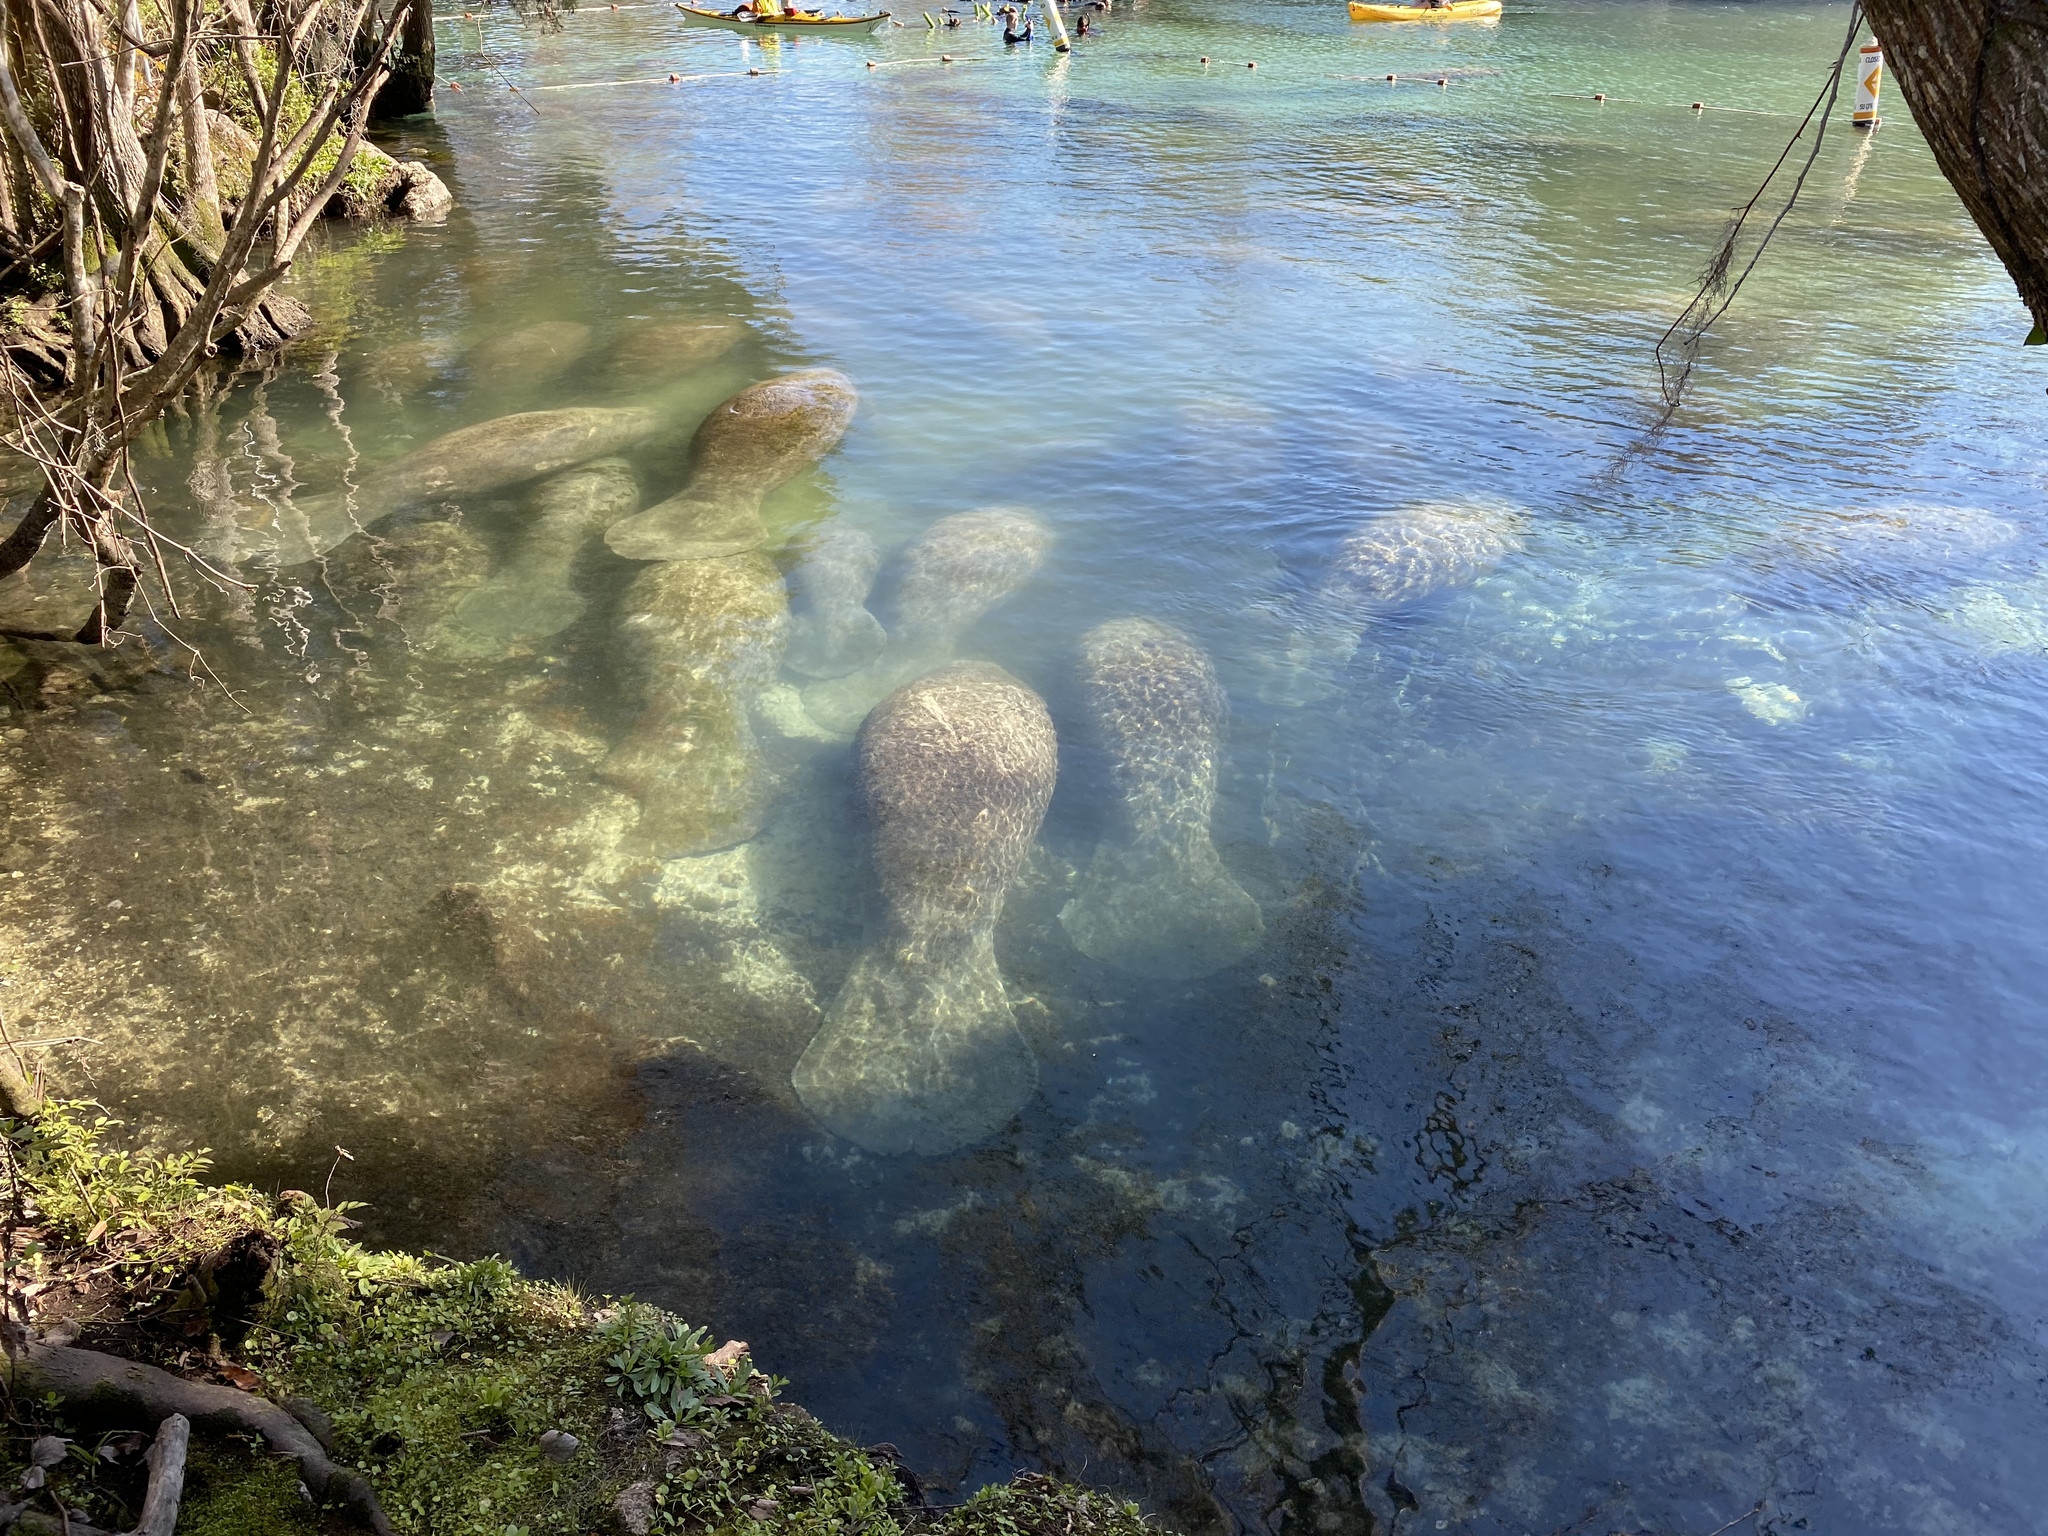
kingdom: Animalia
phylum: Chordata
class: Mammalia
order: Sirenia
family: Trichechidae
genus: Trichechus
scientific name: Trichechus manatus
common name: West indian manatee
